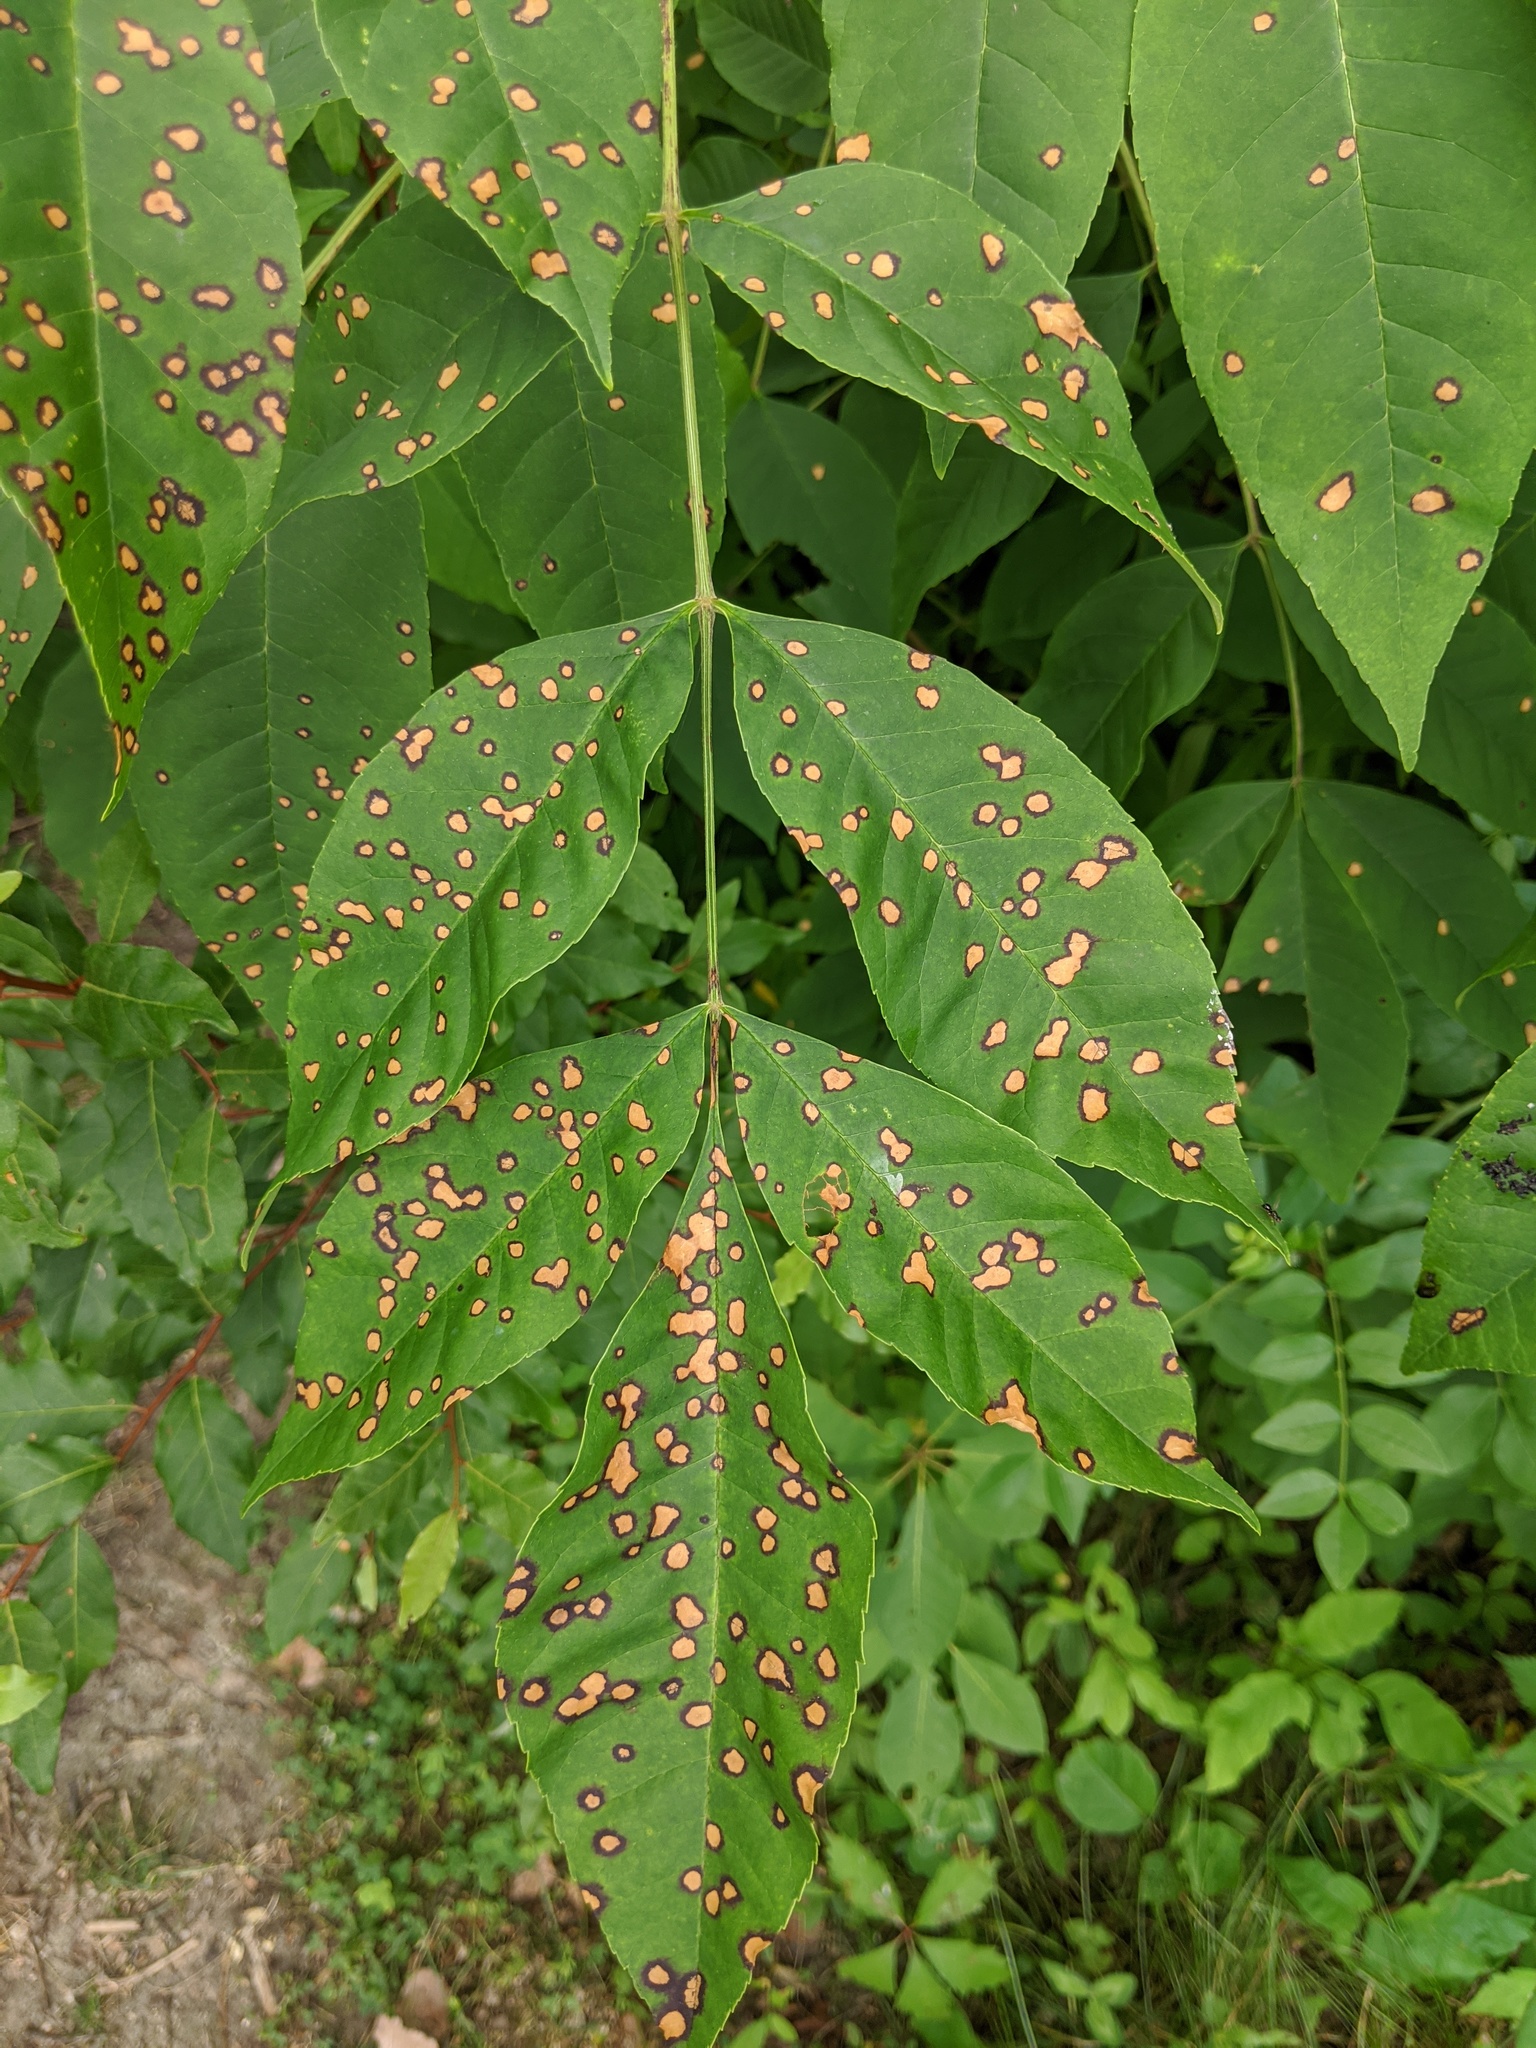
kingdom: Fungi
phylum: Ascomycota
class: Dothideomycetes
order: Mycosphaerellales
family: Mycosphaerellaceae
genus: Mycosphaerella
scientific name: Mycosphaerella fraxinicola
